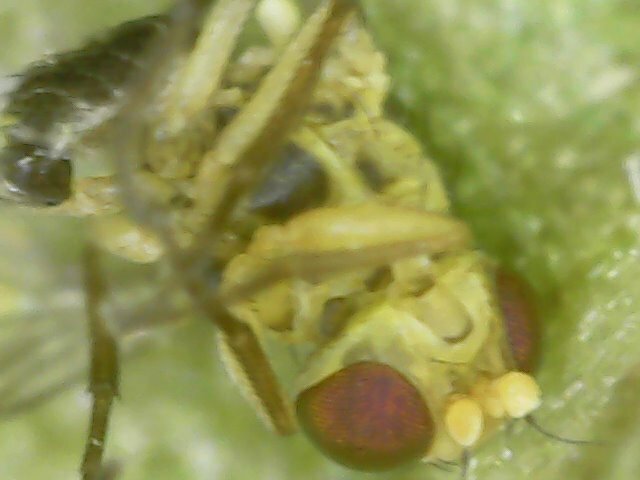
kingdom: Animalia
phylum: Arthropoda
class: Insecta
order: Diptera
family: Agromyzidae
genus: Liriomyza
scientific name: Liriomyza bryoniae
